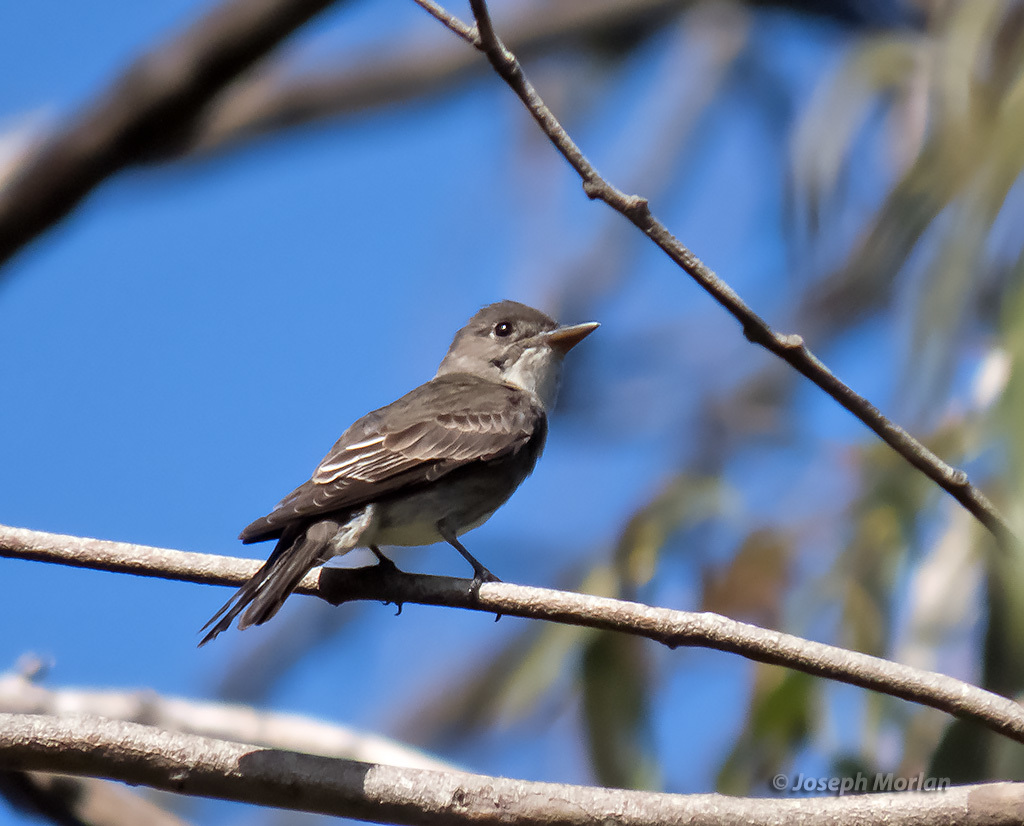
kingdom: Animalia
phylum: Chordata
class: Aves
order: Passeriformes
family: Tyrannidae
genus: Contopus
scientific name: Contopus cooperi
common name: Olive-sided flycatcher
